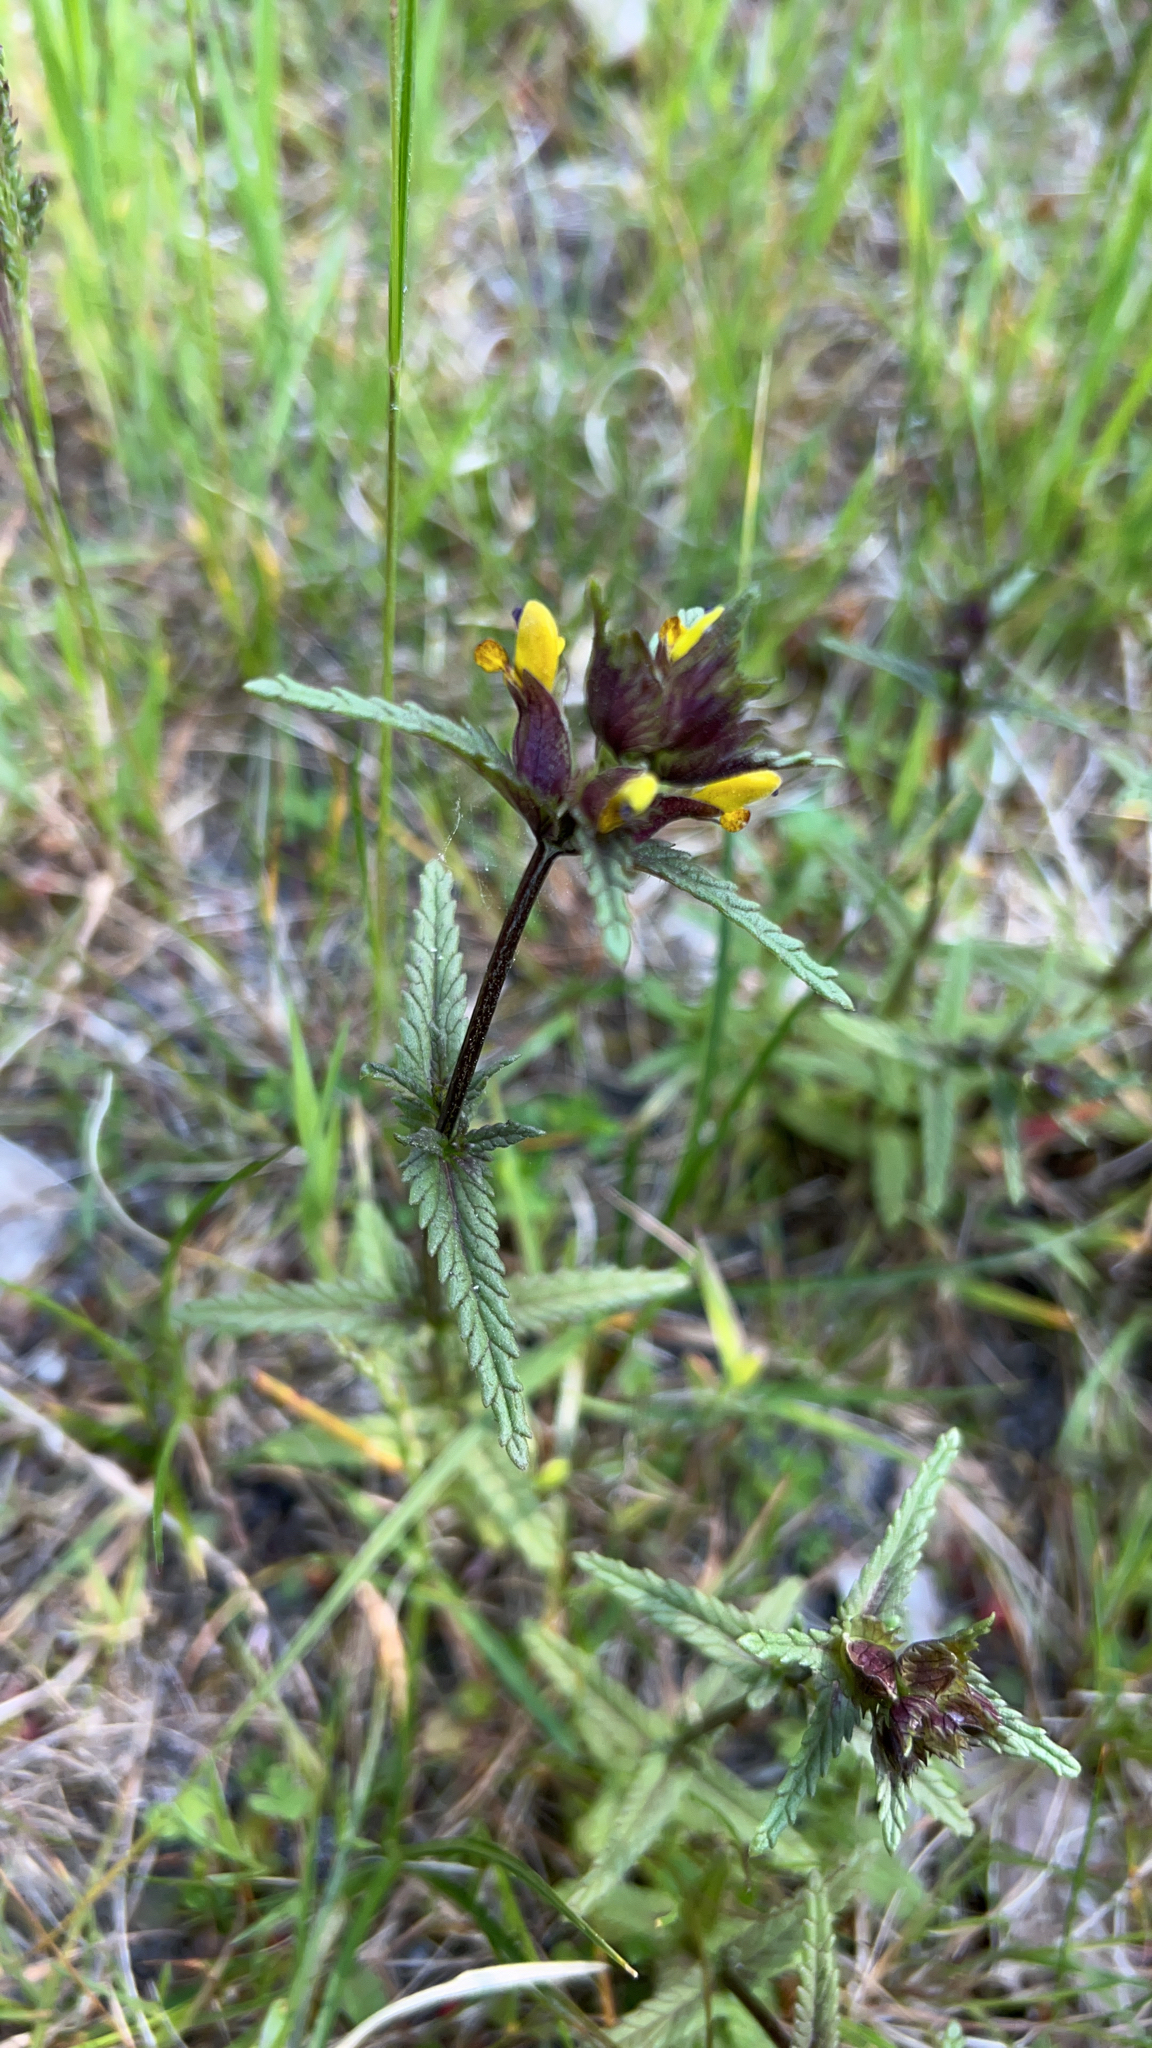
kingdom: Plantae
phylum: Tracheophyta
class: Magnoliopsida
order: Lamiales
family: Orobanchaceae
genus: Rhinanthus
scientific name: Rhinanthus minor
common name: Yellow-rattle
